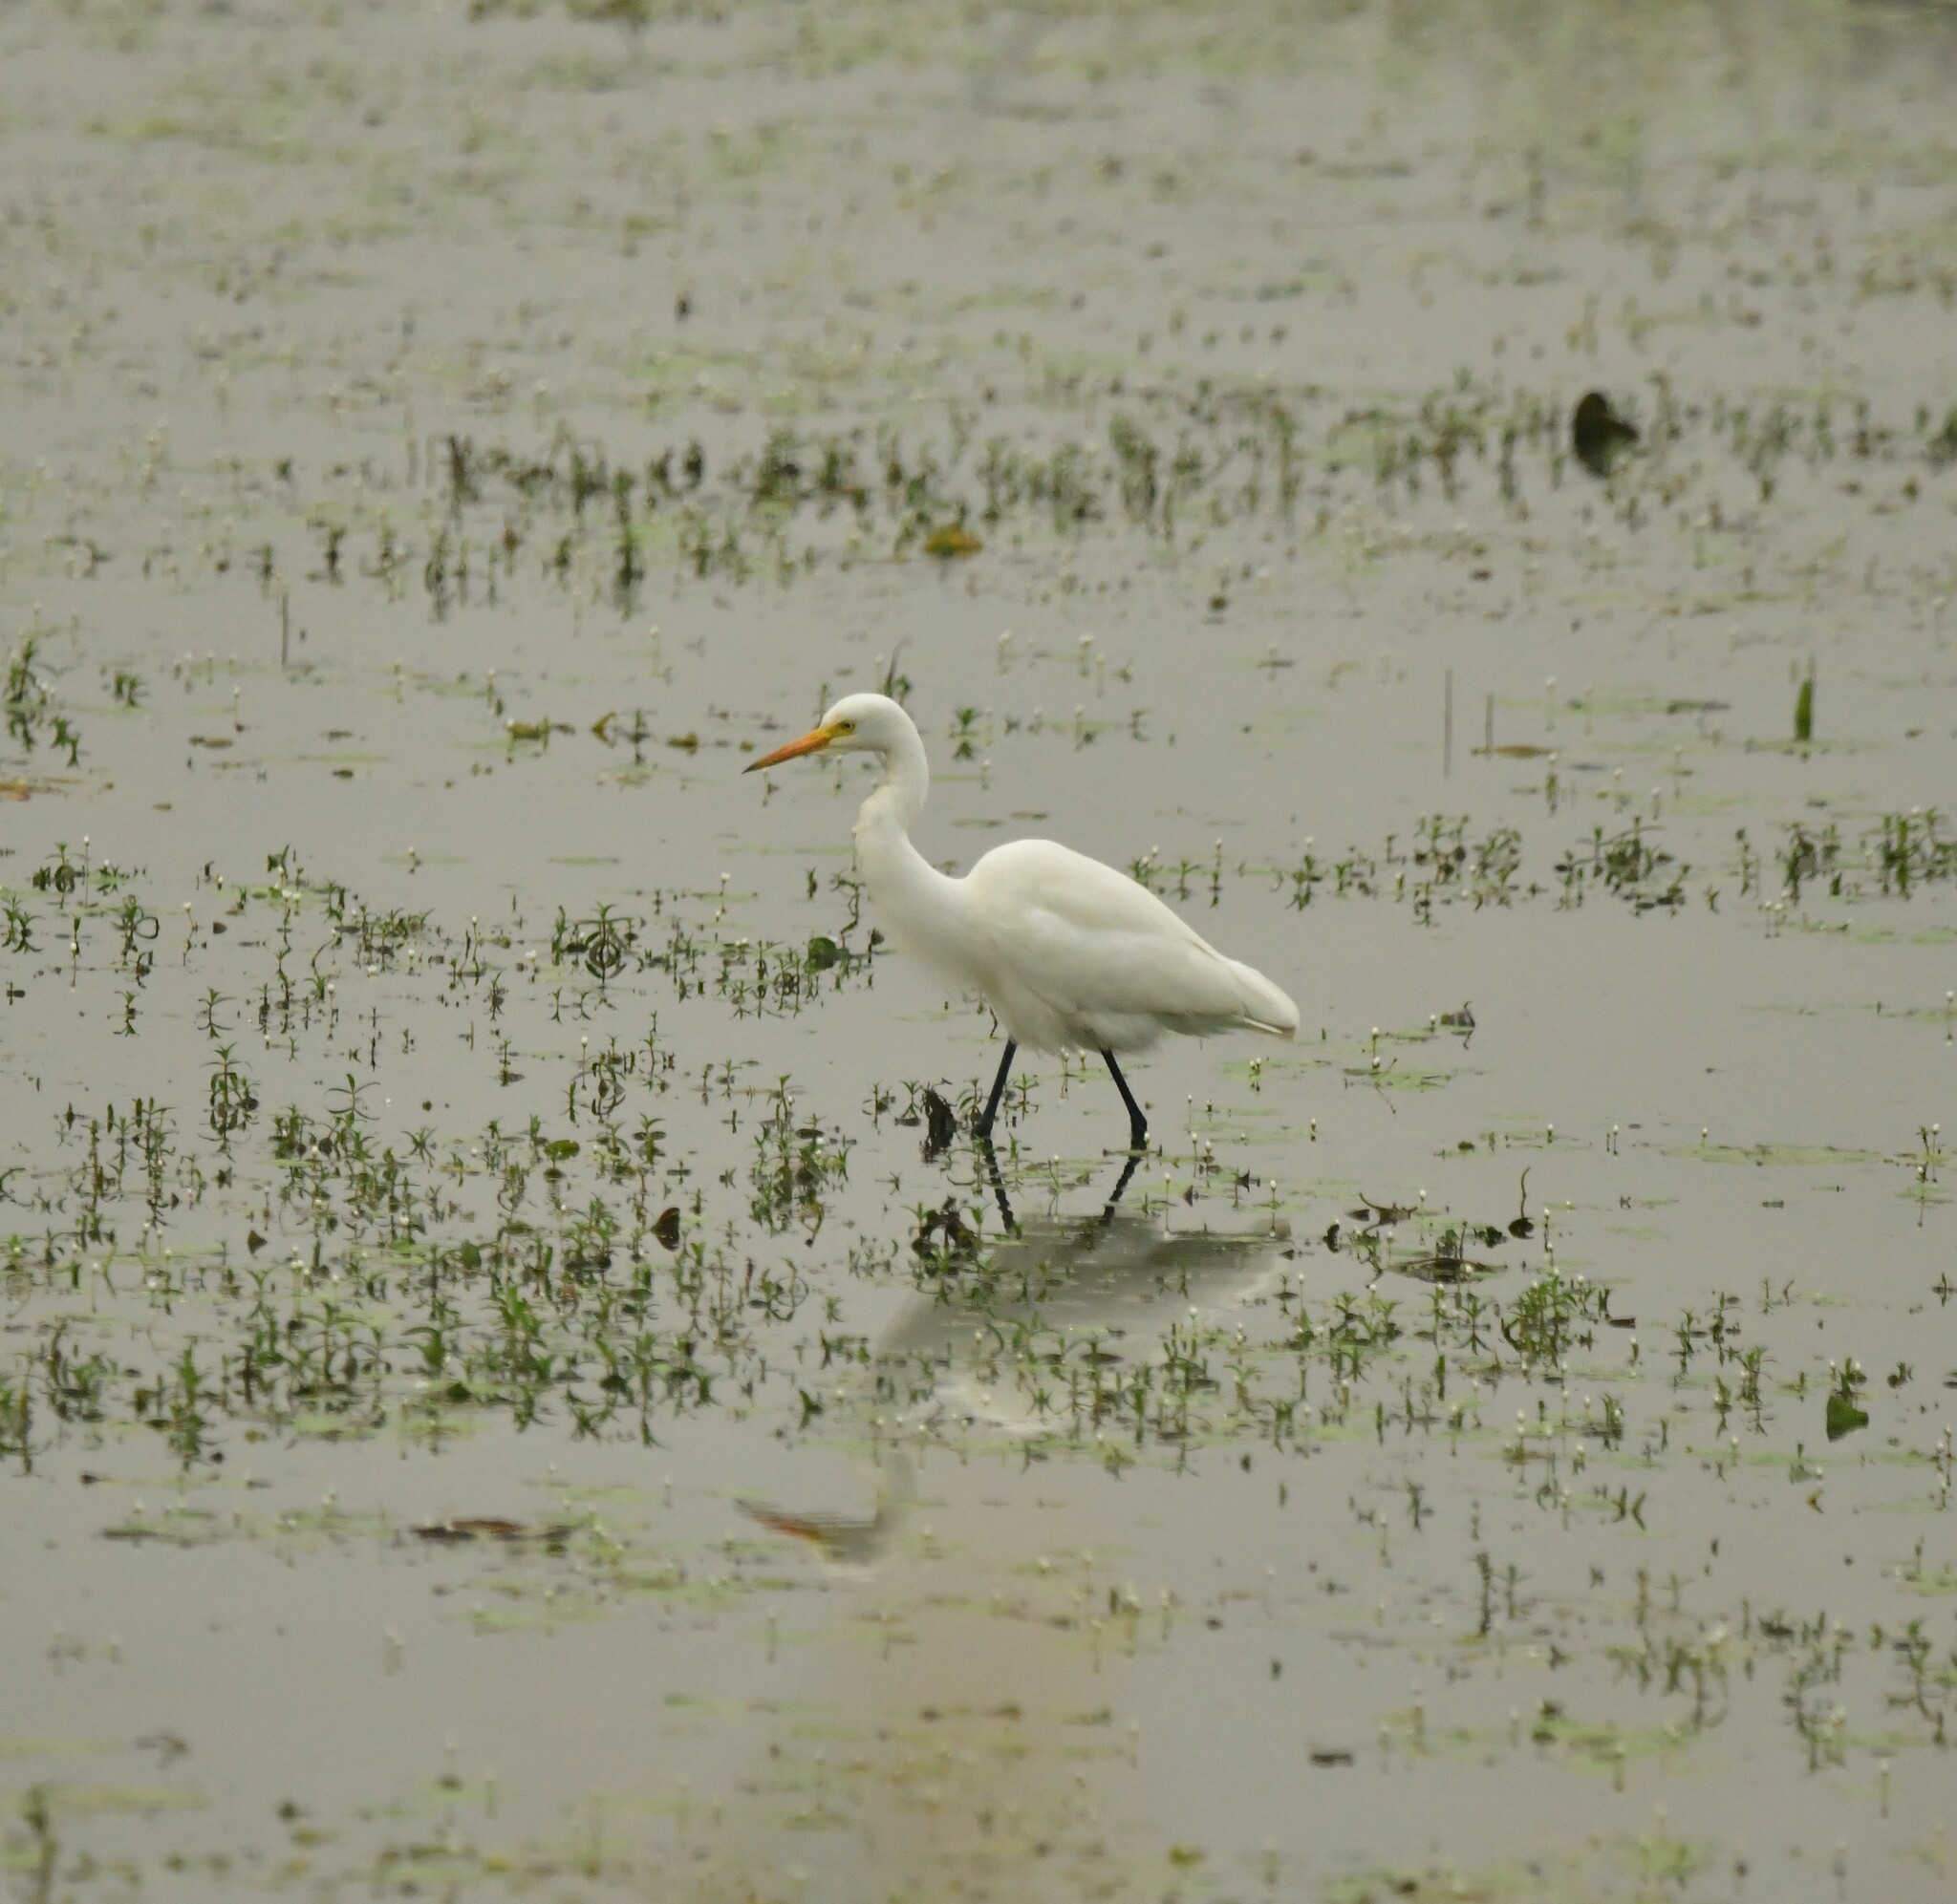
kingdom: Animalia
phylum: Chordata
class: Aves
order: Pelecaniformes
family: Ardeidae
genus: Egretta
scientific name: Egretta intermedia
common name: Intermediate egret
